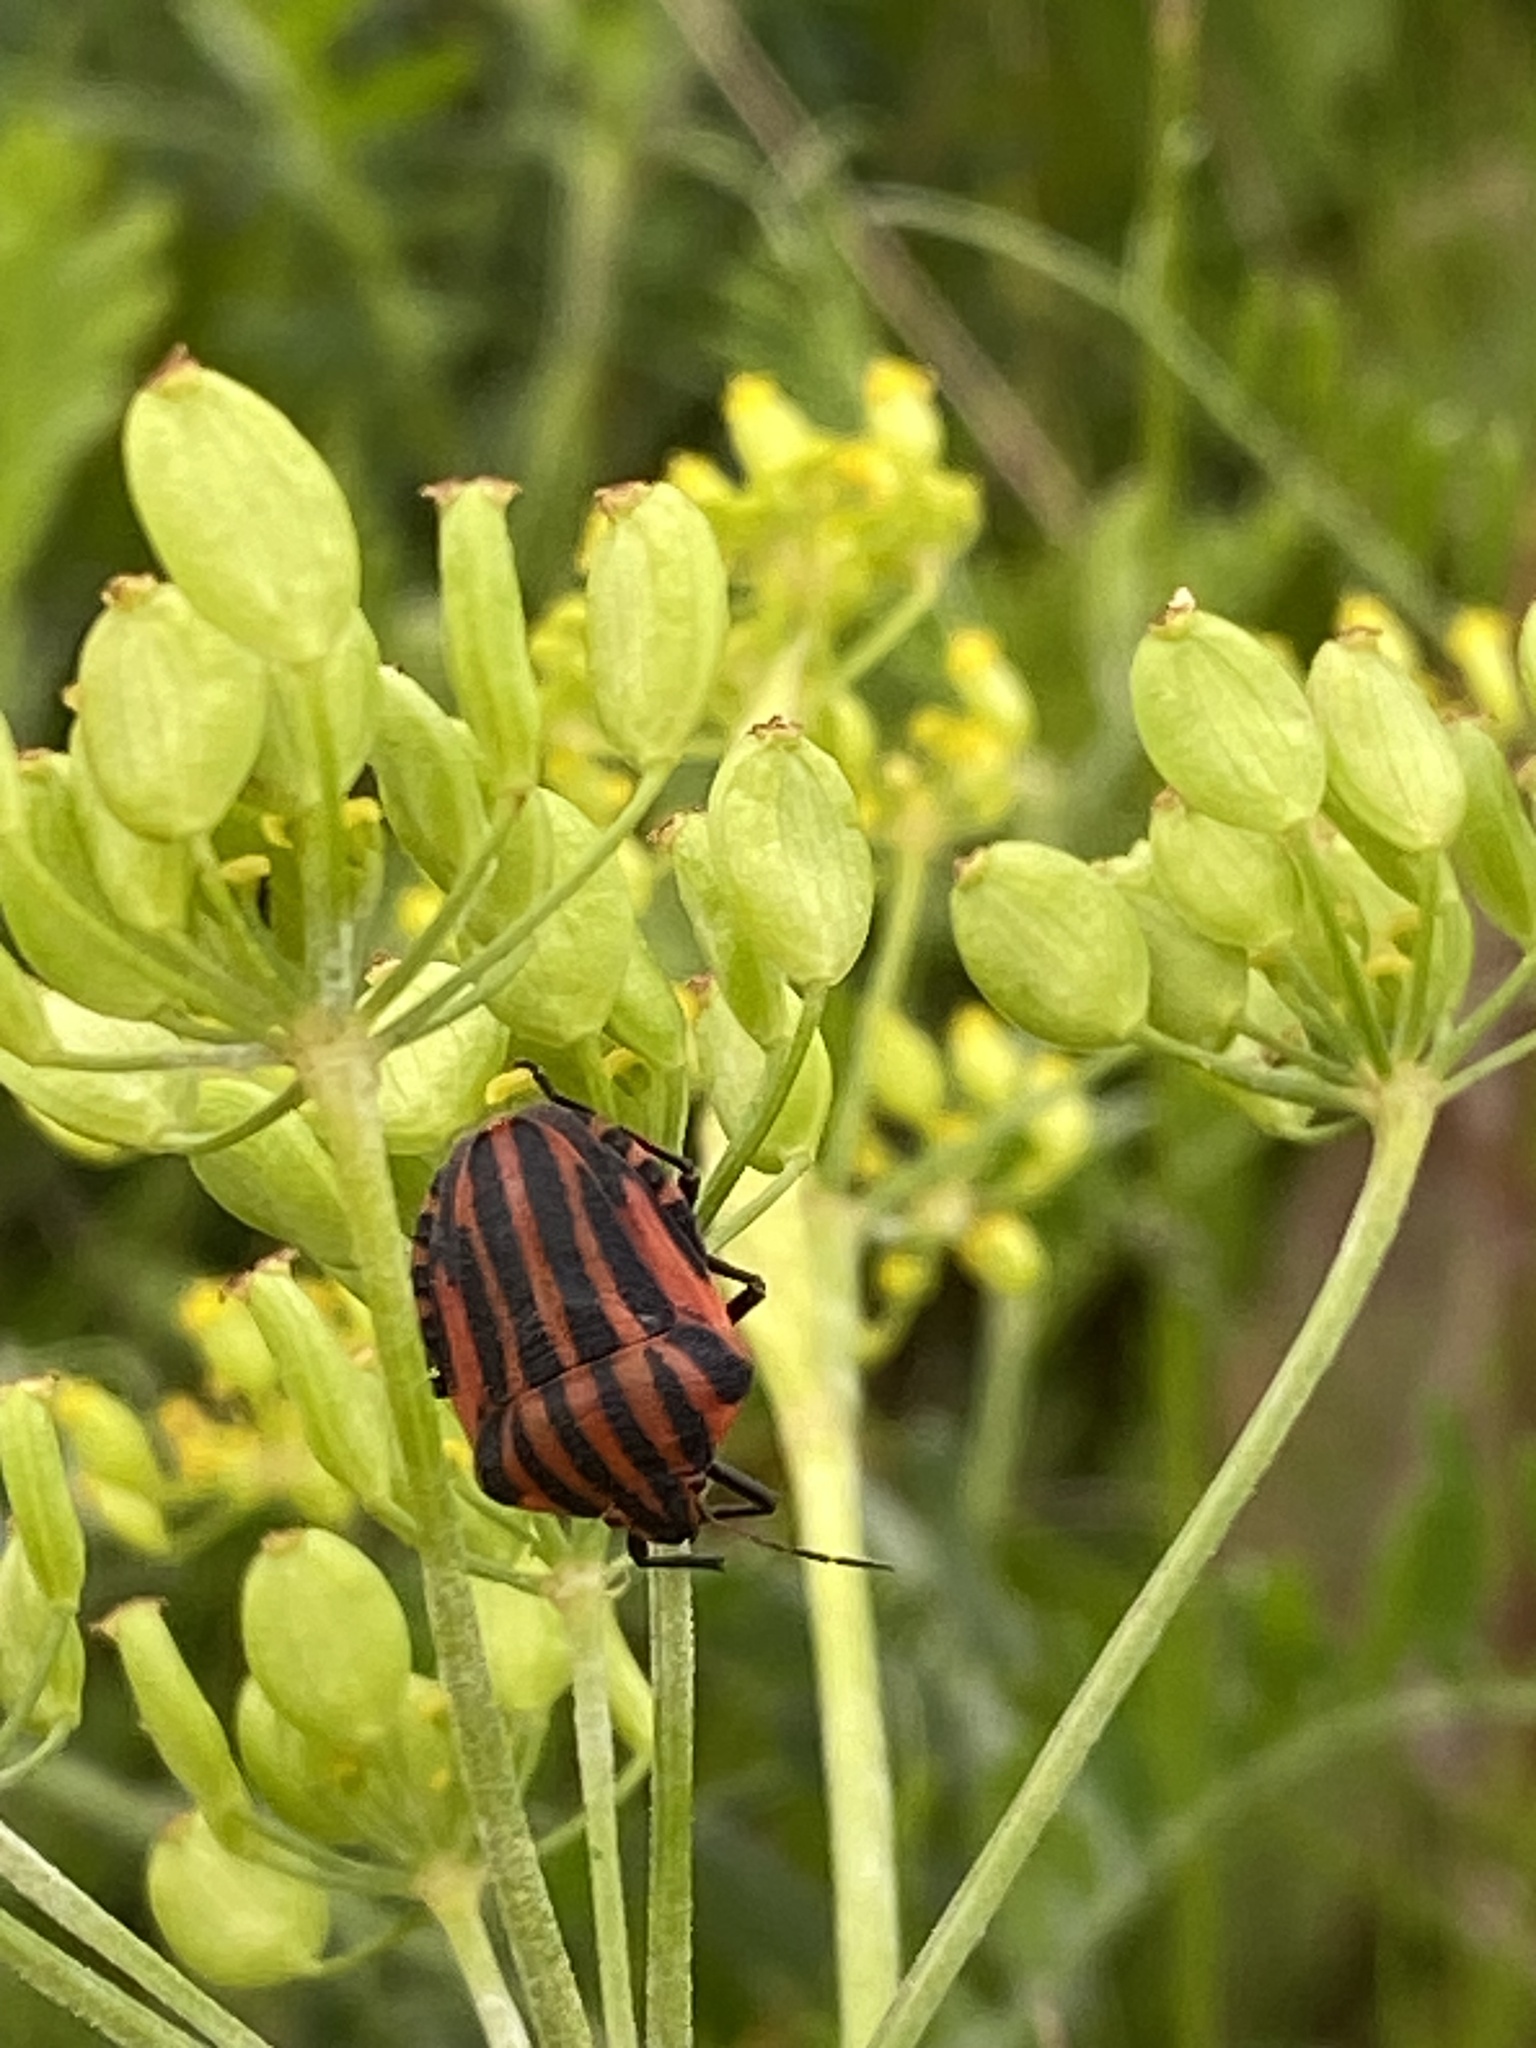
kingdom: Animalia
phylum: Arthropoda
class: Insecta
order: Hemiptera
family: Pentatomidae
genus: Graphosoma
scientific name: Graphosoma italicum
